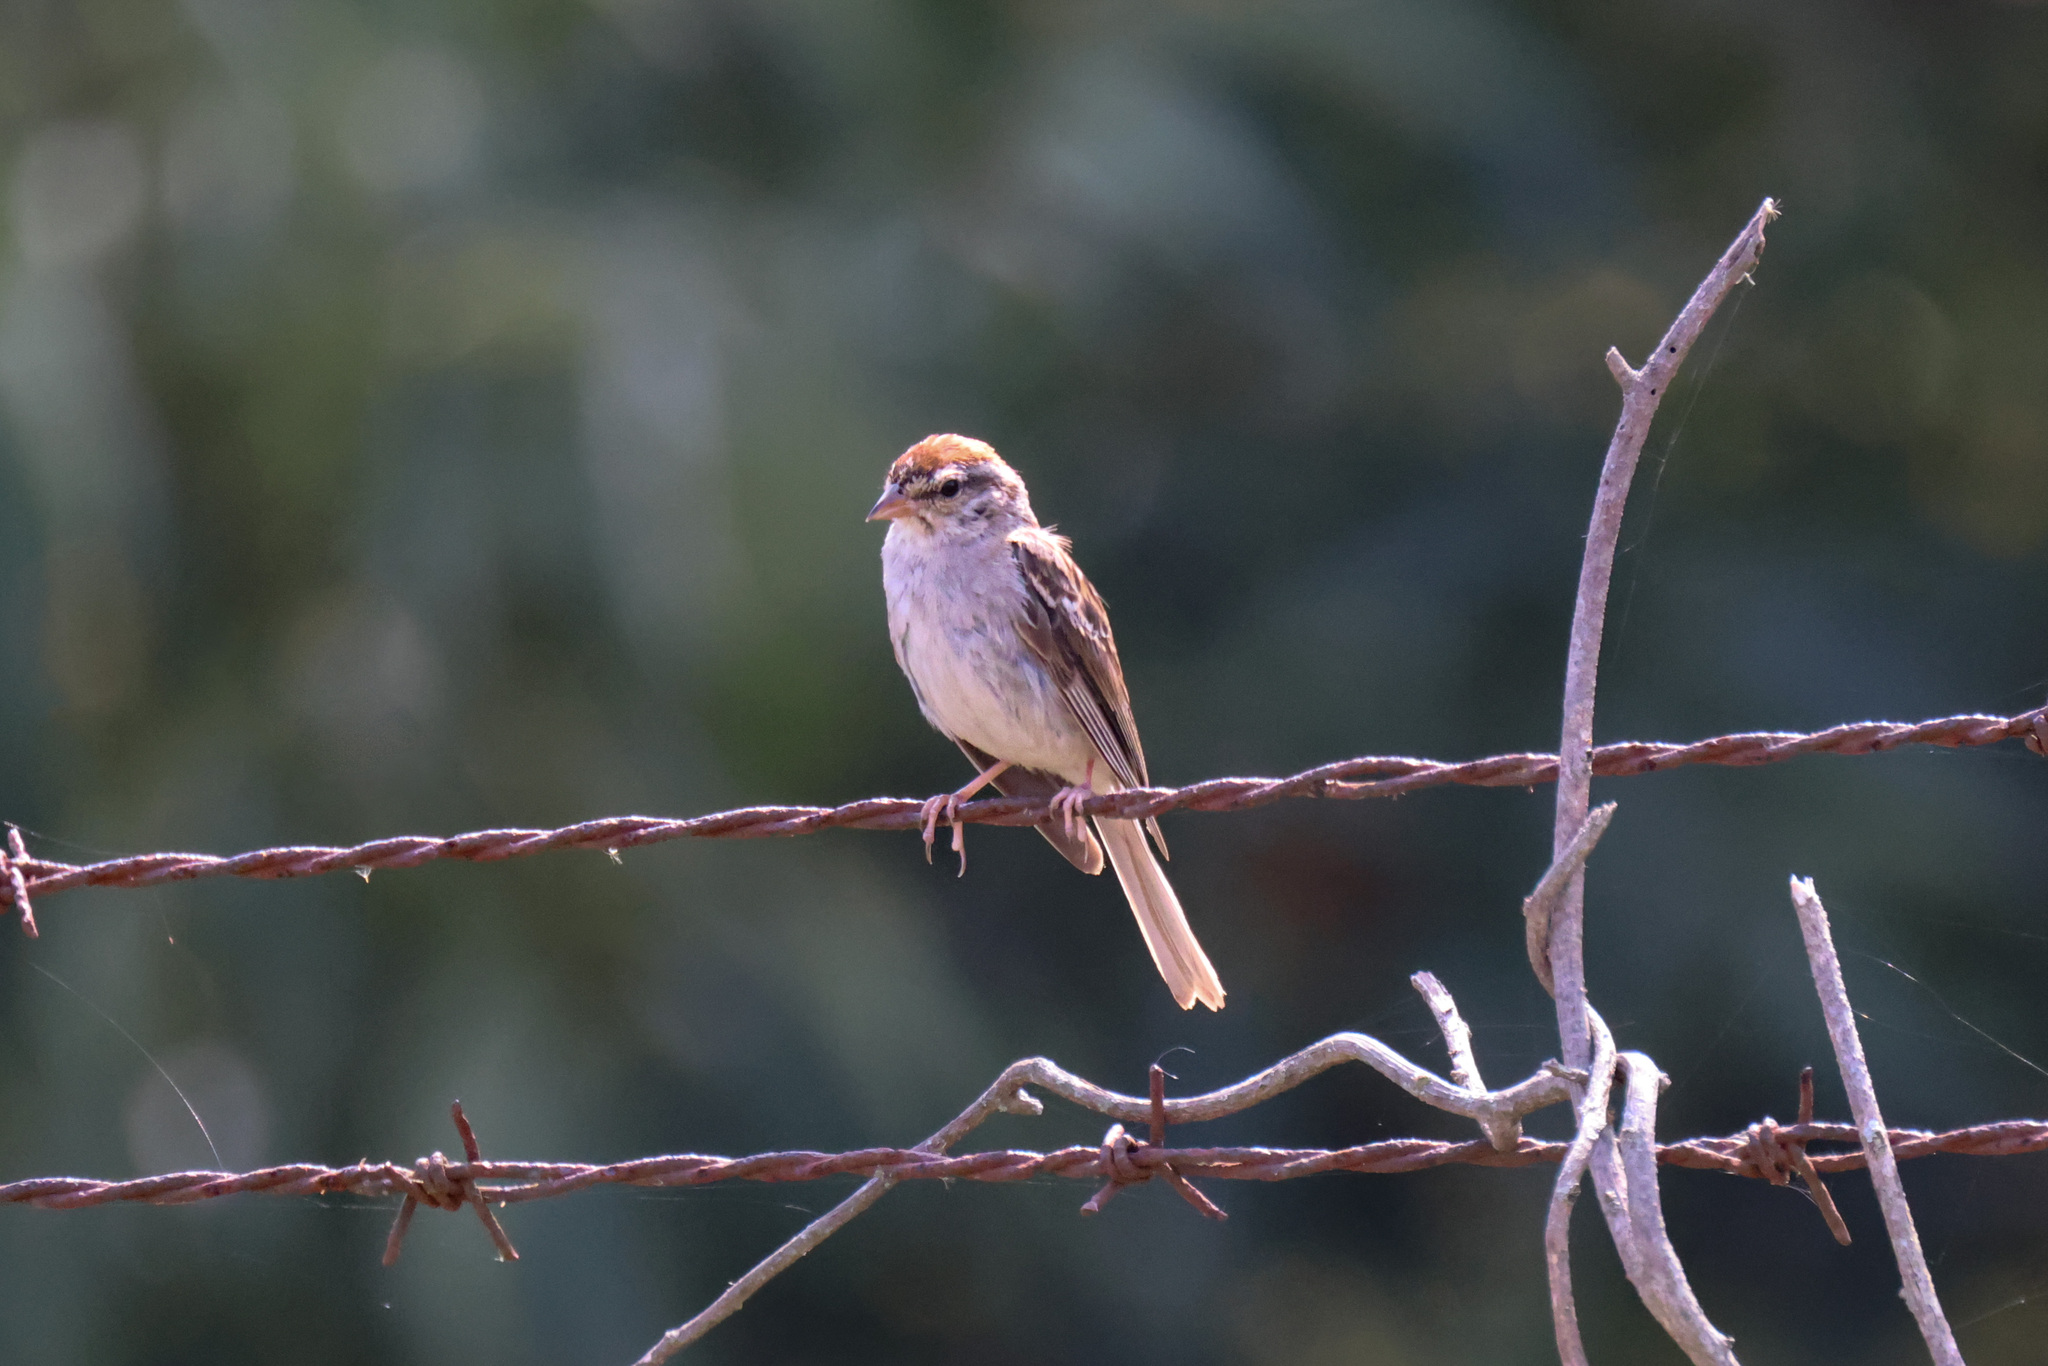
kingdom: Animalia
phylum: Chordata
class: Aves
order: Passeriformes
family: Passerellidae
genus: Spizella
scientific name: Spizella passerina
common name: Chipping sparrow
